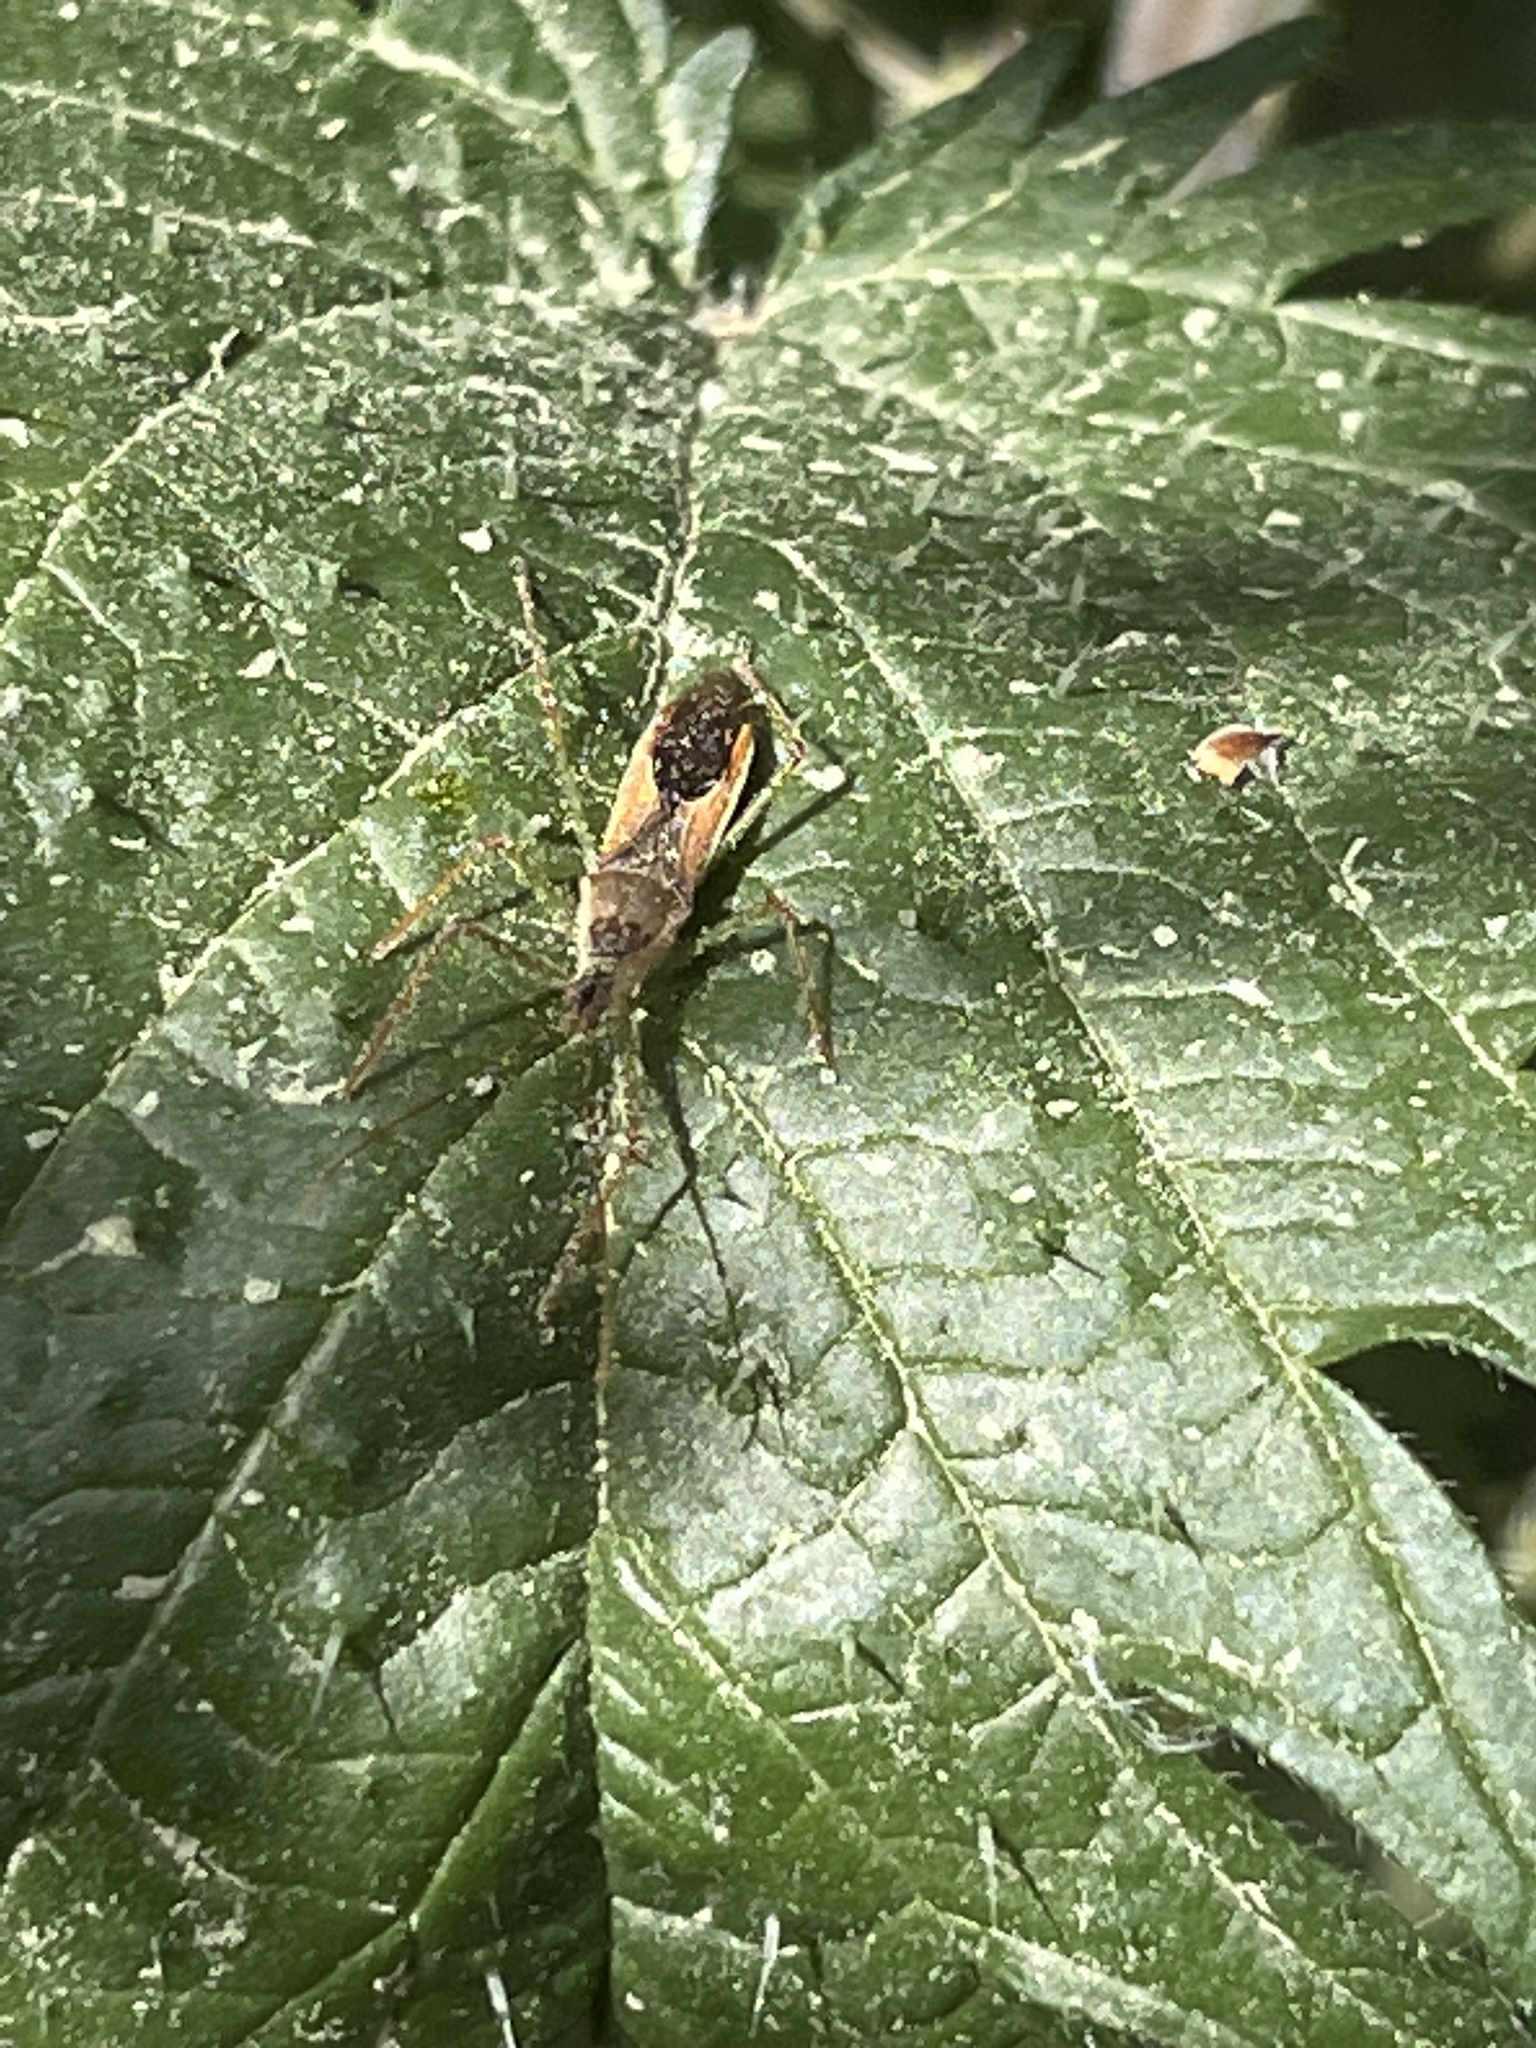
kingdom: Animalia
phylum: Arthropoda
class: Insecta
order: Hemiptera
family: Reduviidae
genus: Zelus
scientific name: Zelus renardii
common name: Assassin bug
